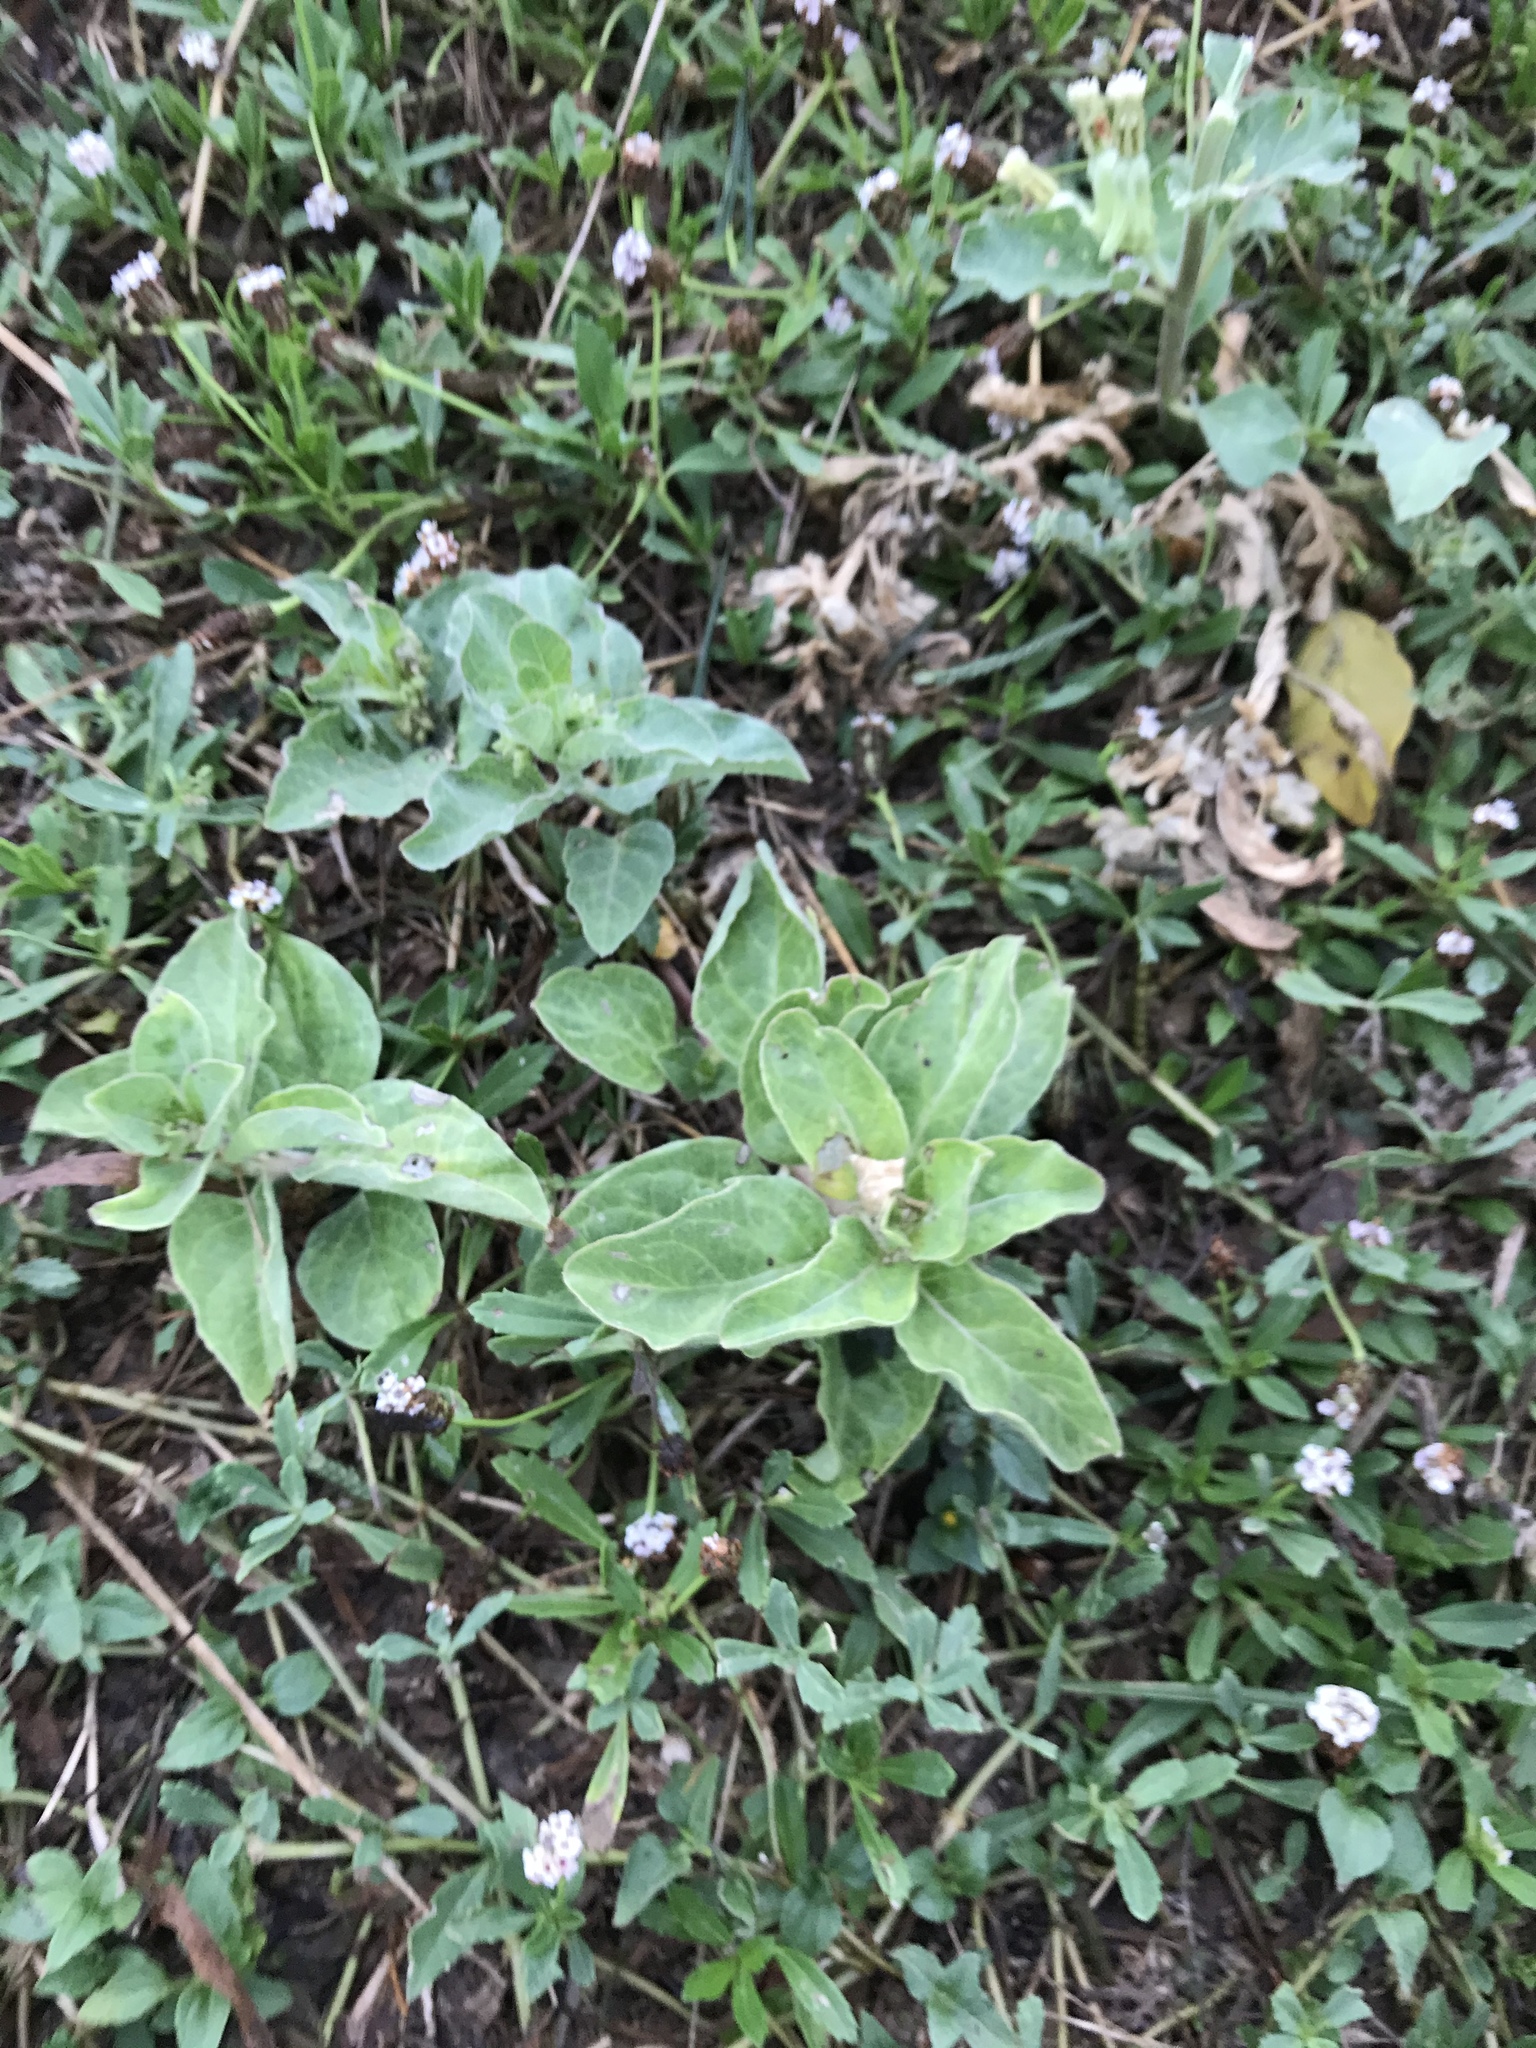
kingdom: Plantae
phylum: Tracheophyta
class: Magnoliopsida
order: Gentianales
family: Apocynaceae
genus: Asclepias
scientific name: Asclepias oenotheroides
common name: Zizotes milkweed
